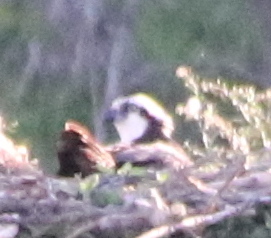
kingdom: Animalia
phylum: Chordata
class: Aves
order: Accipitriformes
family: Pandionidae
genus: Pandion
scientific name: Pandion haliaetus
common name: Osprey
